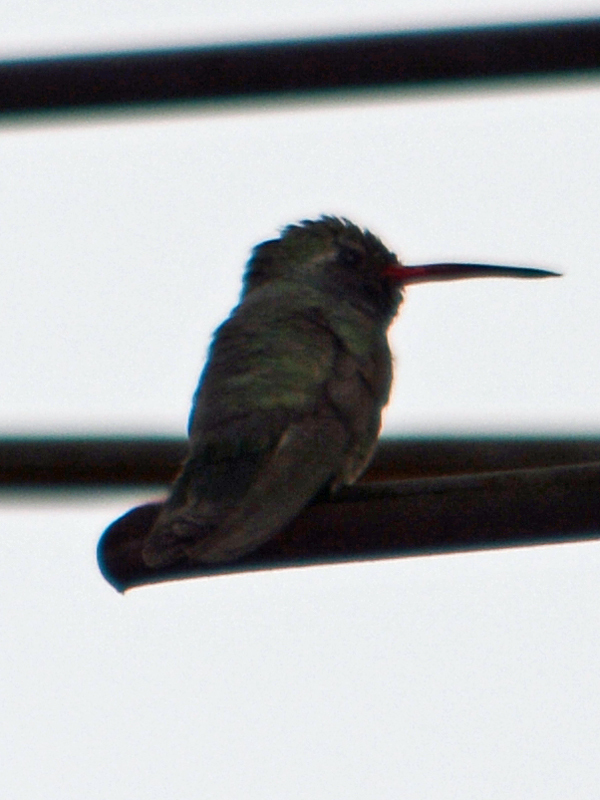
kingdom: Animalia
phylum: Chordata
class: Aves
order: Apodiformes
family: Trochilidae
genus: Cynanthus
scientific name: Cynanthus latirostris
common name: Broad-billed hummingbird
